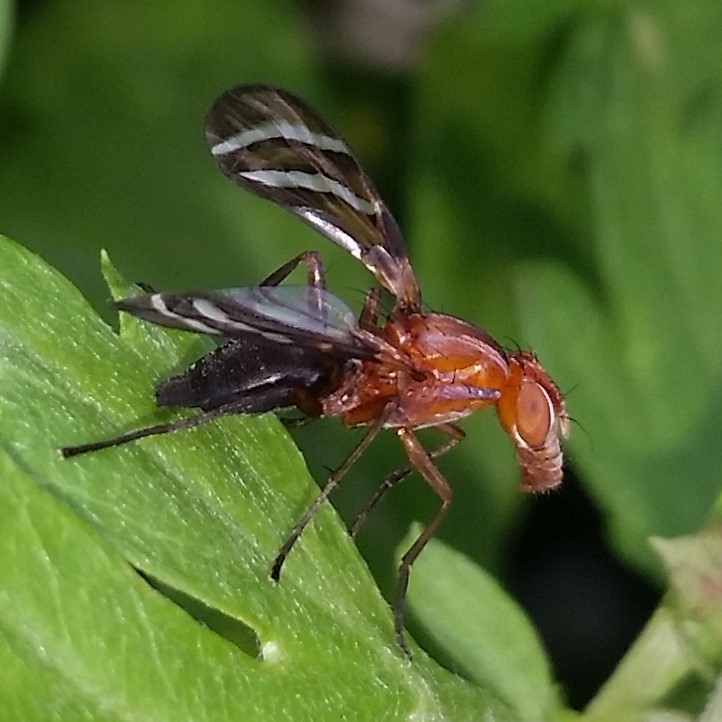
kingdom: Animalia
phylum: Arthropoda
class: Insecta
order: Diptera
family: Ulidiidae
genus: Tritoxa
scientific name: Tritoxa incurva
